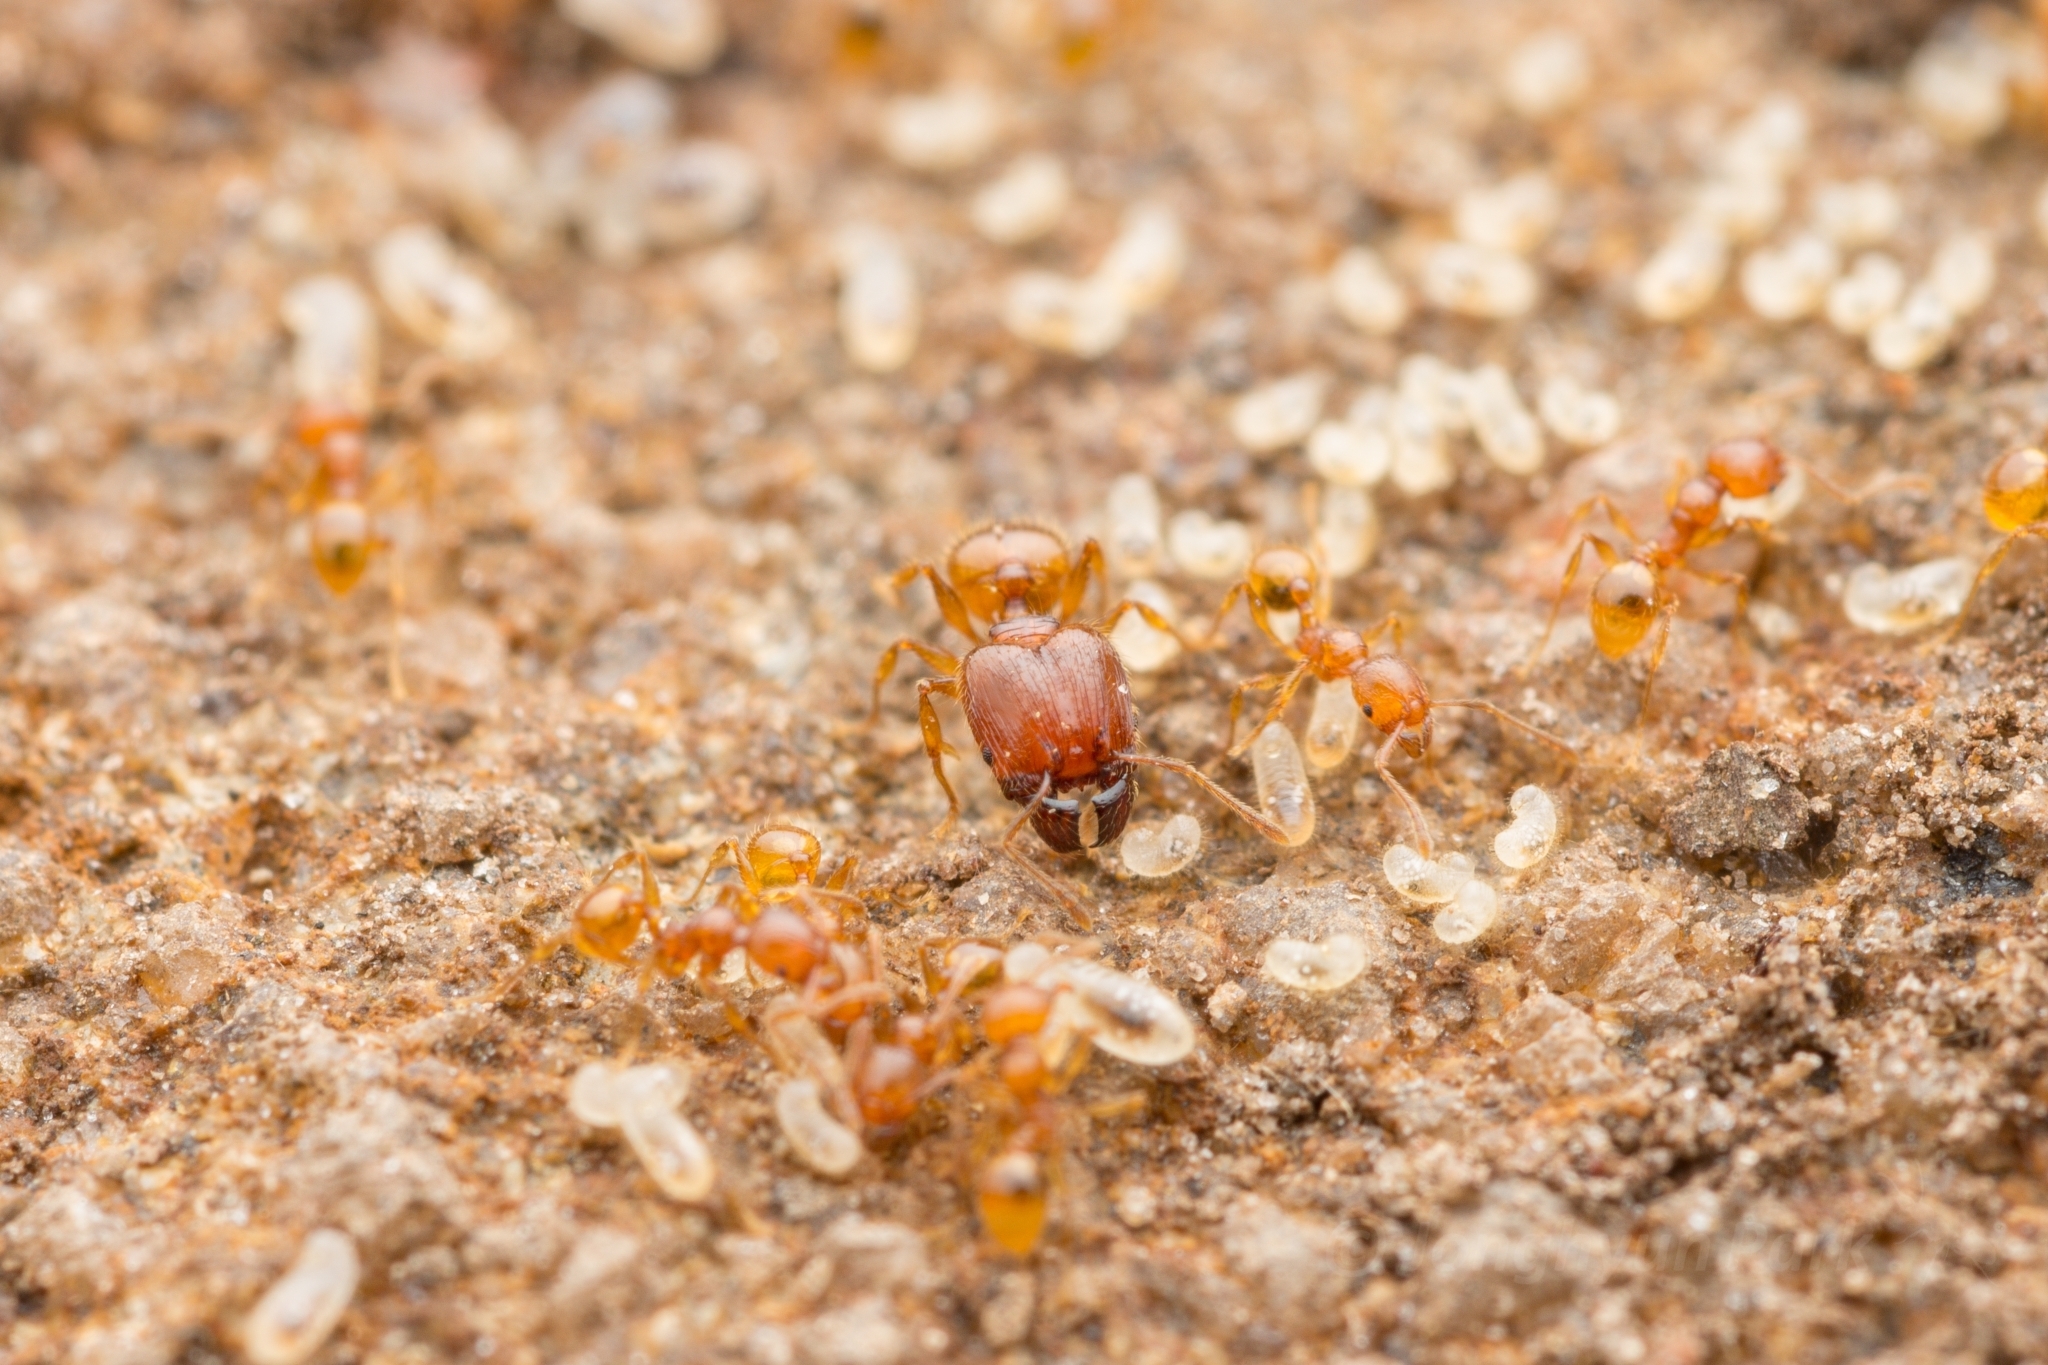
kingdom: Animalia
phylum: Arthropoda
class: Insecta
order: Hymenoptera
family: Formicidae
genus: Pheidole
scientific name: Pheidole fervida
